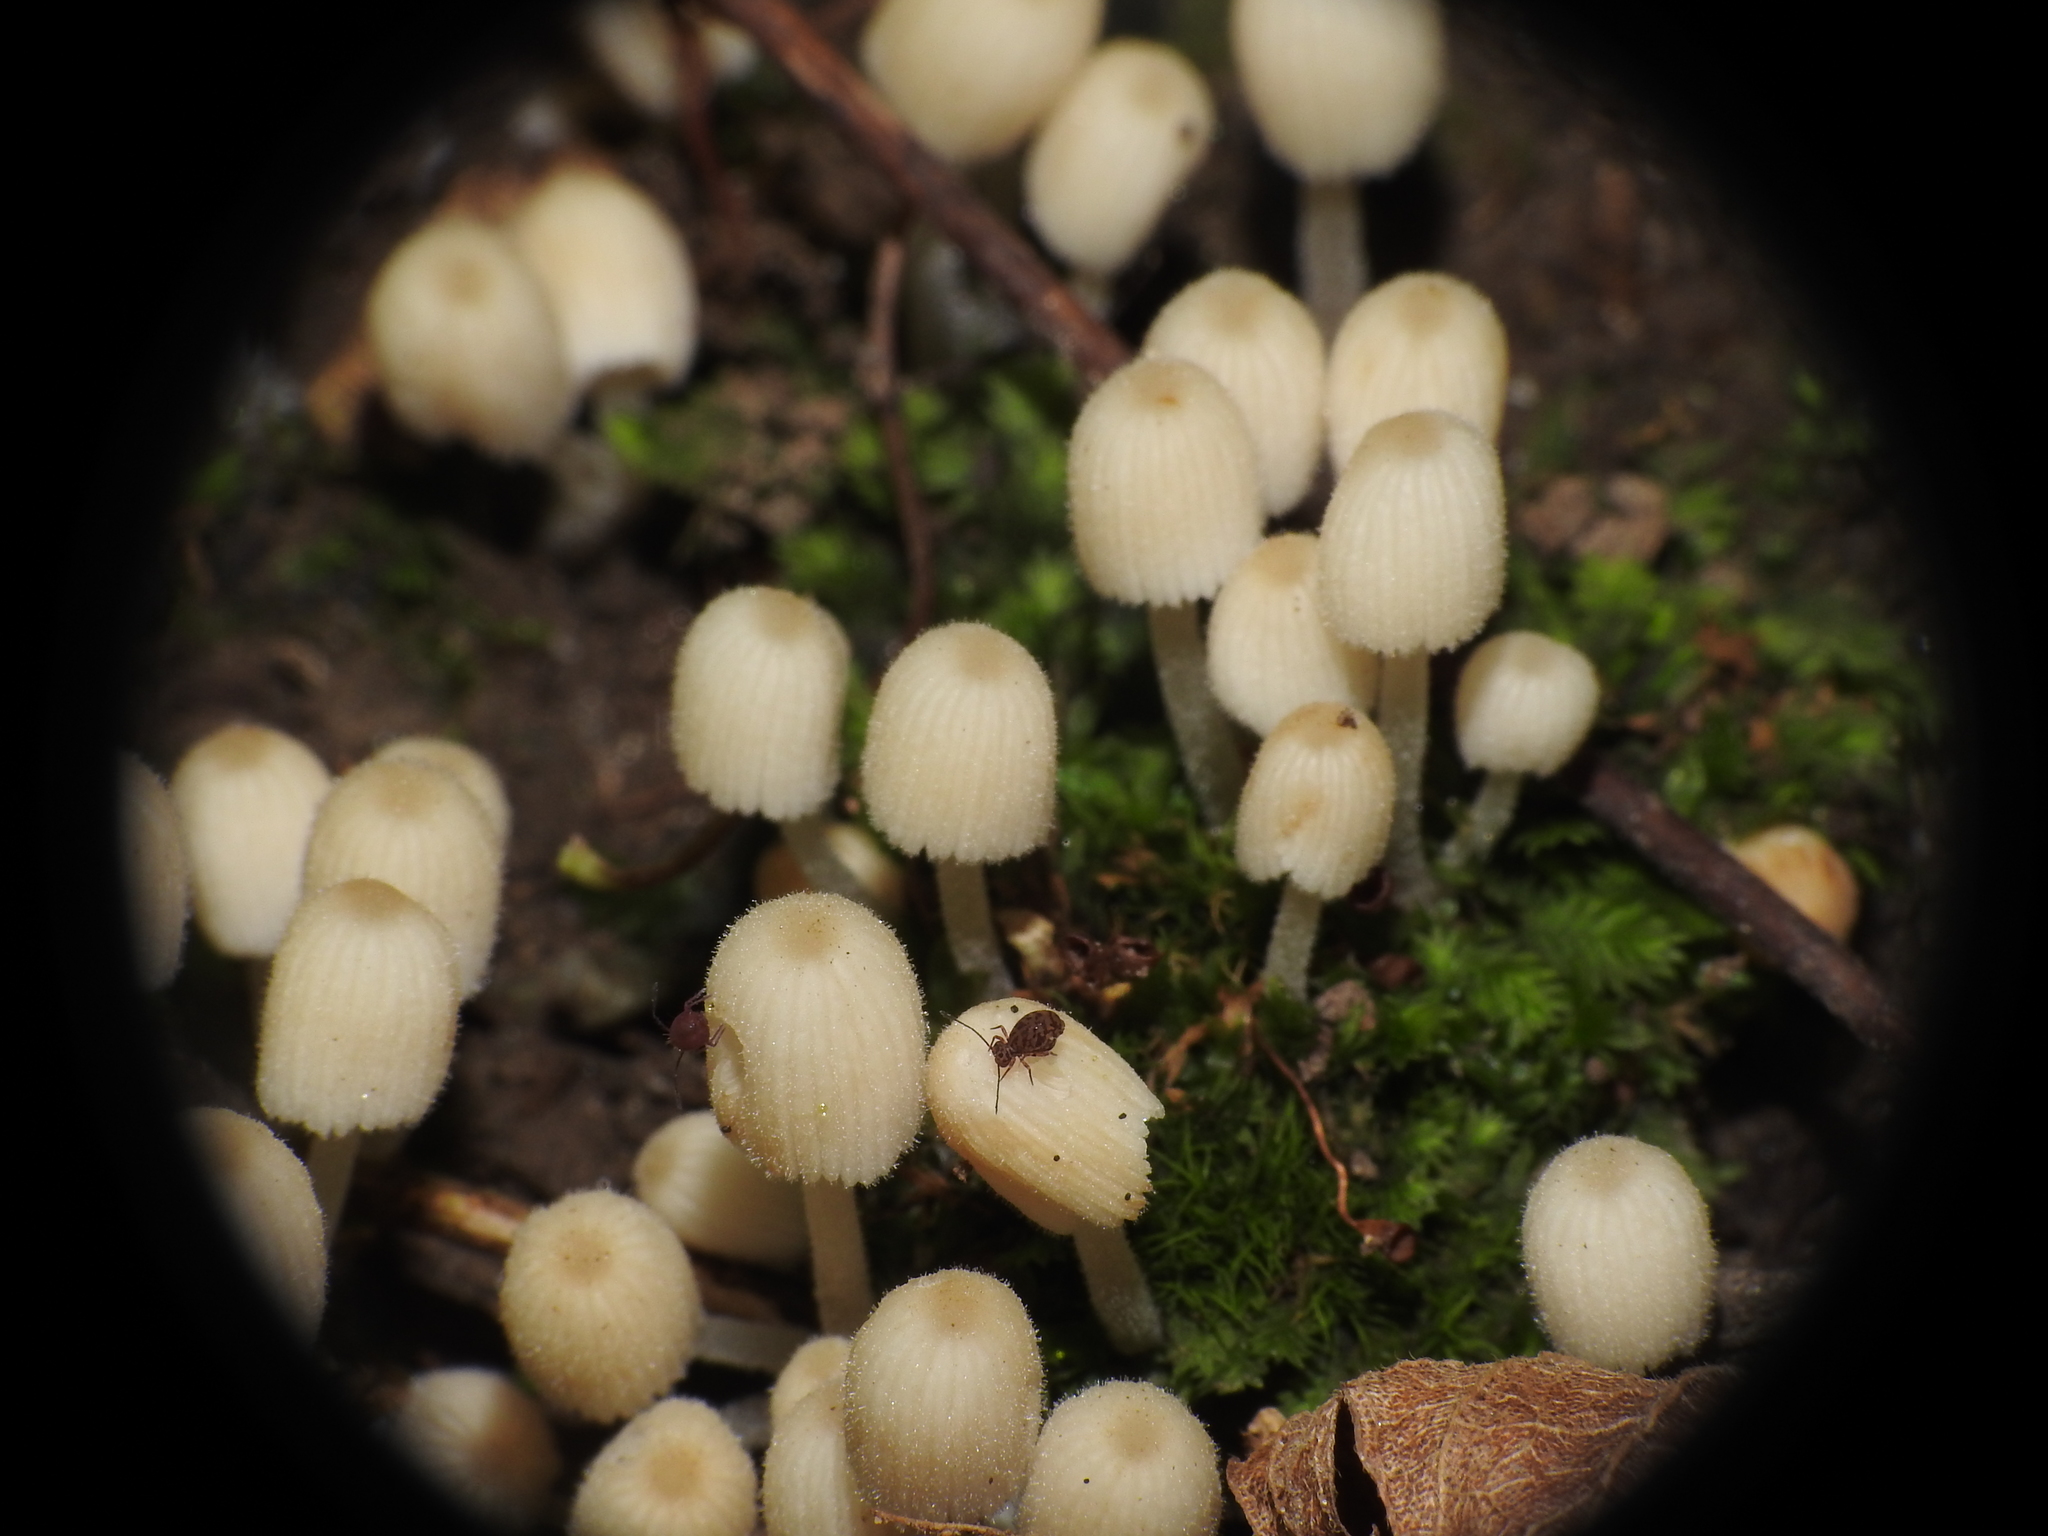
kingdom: Fungi
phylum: Basidiomycota
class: Agaricomycetes
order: Agaricales
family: Psathyrellaceae
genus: Coprinellus
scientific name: Coprinellus disseminatus
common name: Fairies' bonnets
